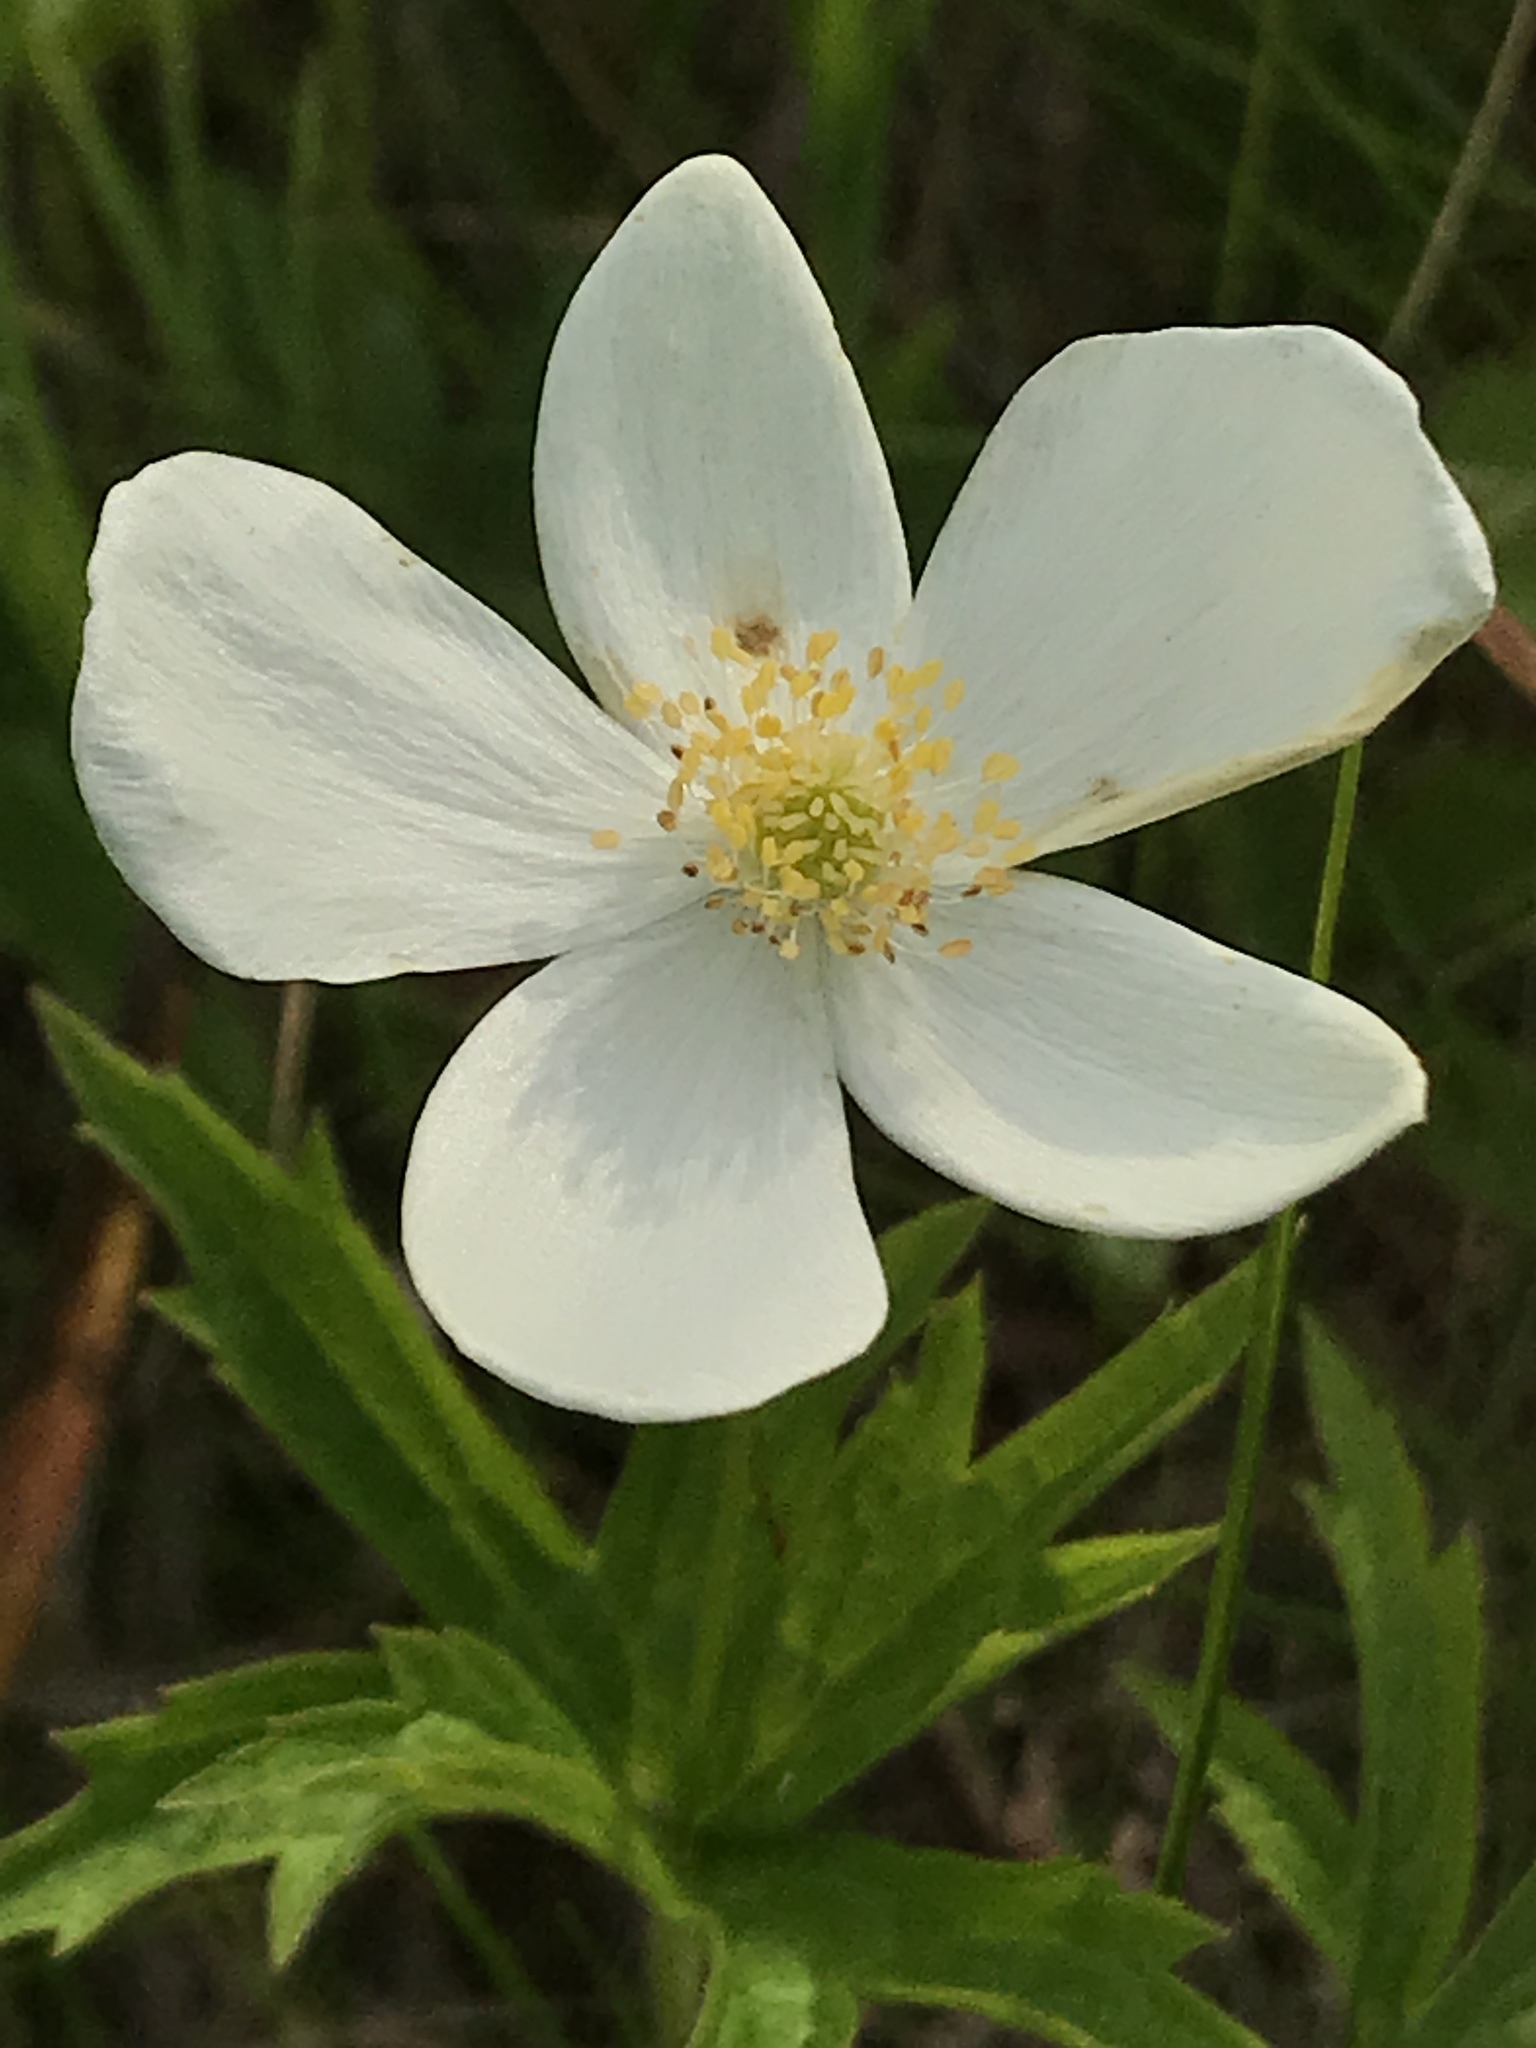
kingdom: Plantae
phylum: Tracheophyta
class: Magnoliopsida
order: Ranunculales
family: Ranunculaceae
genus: Anemonastrum
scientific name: Anemonastrum canadense
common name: Canada anemone
